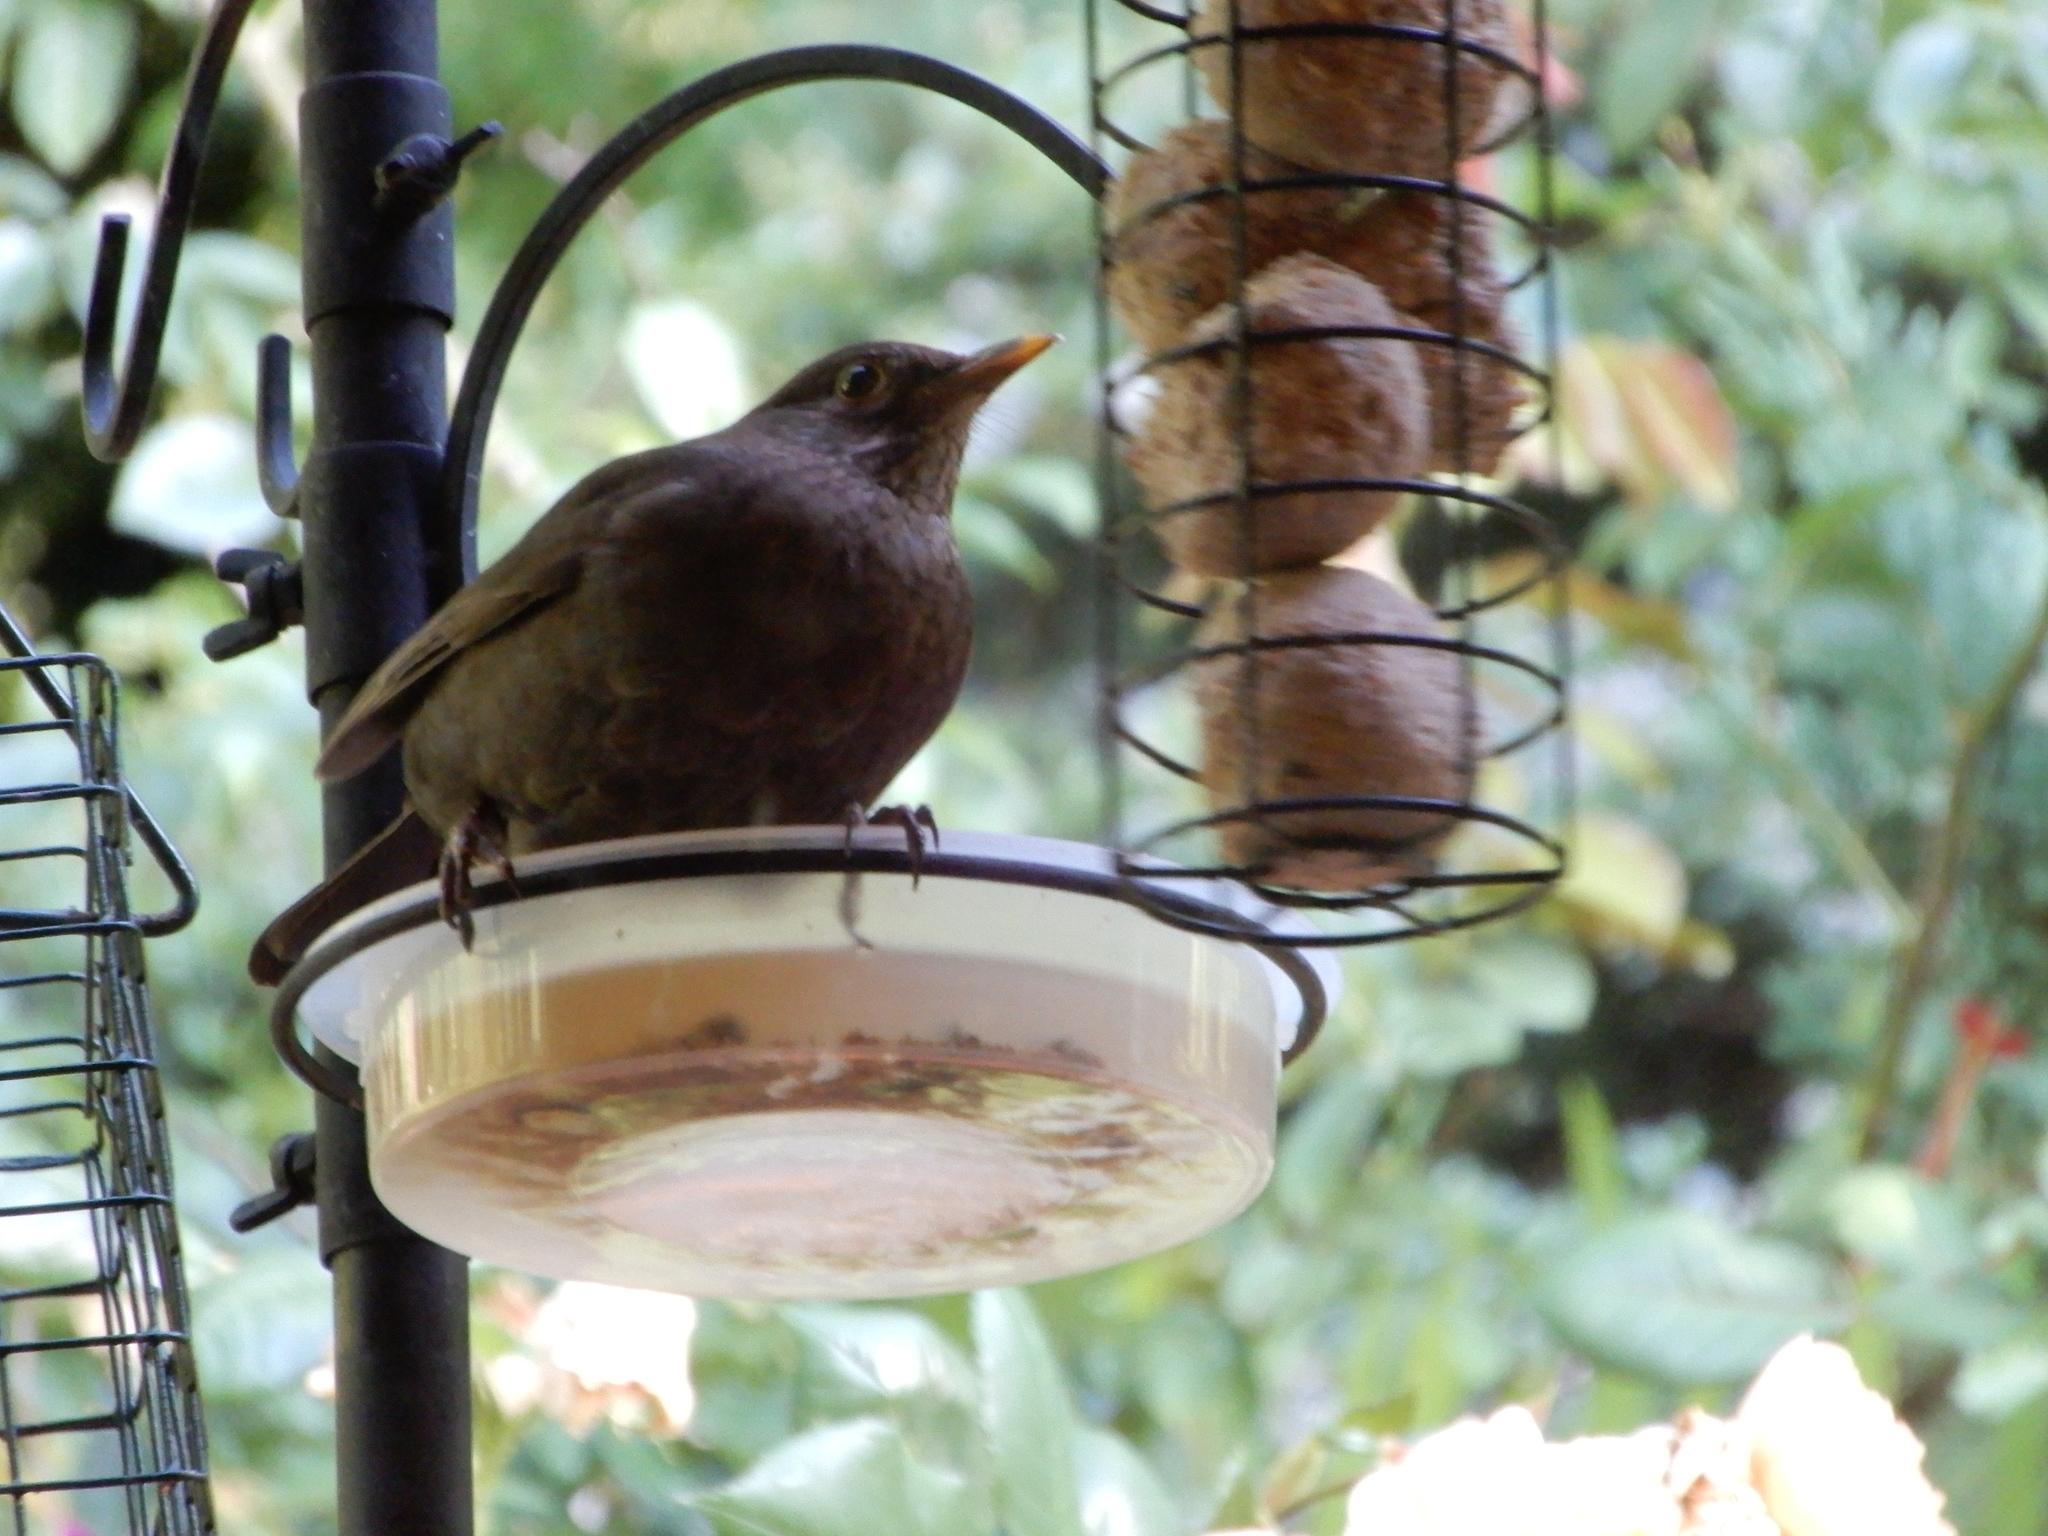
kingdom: Animalia
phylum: Chordata
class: Aves
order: Passeriformes
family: Turdidae
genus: Turdus
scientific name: Turdus merula
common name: Common blackbird
